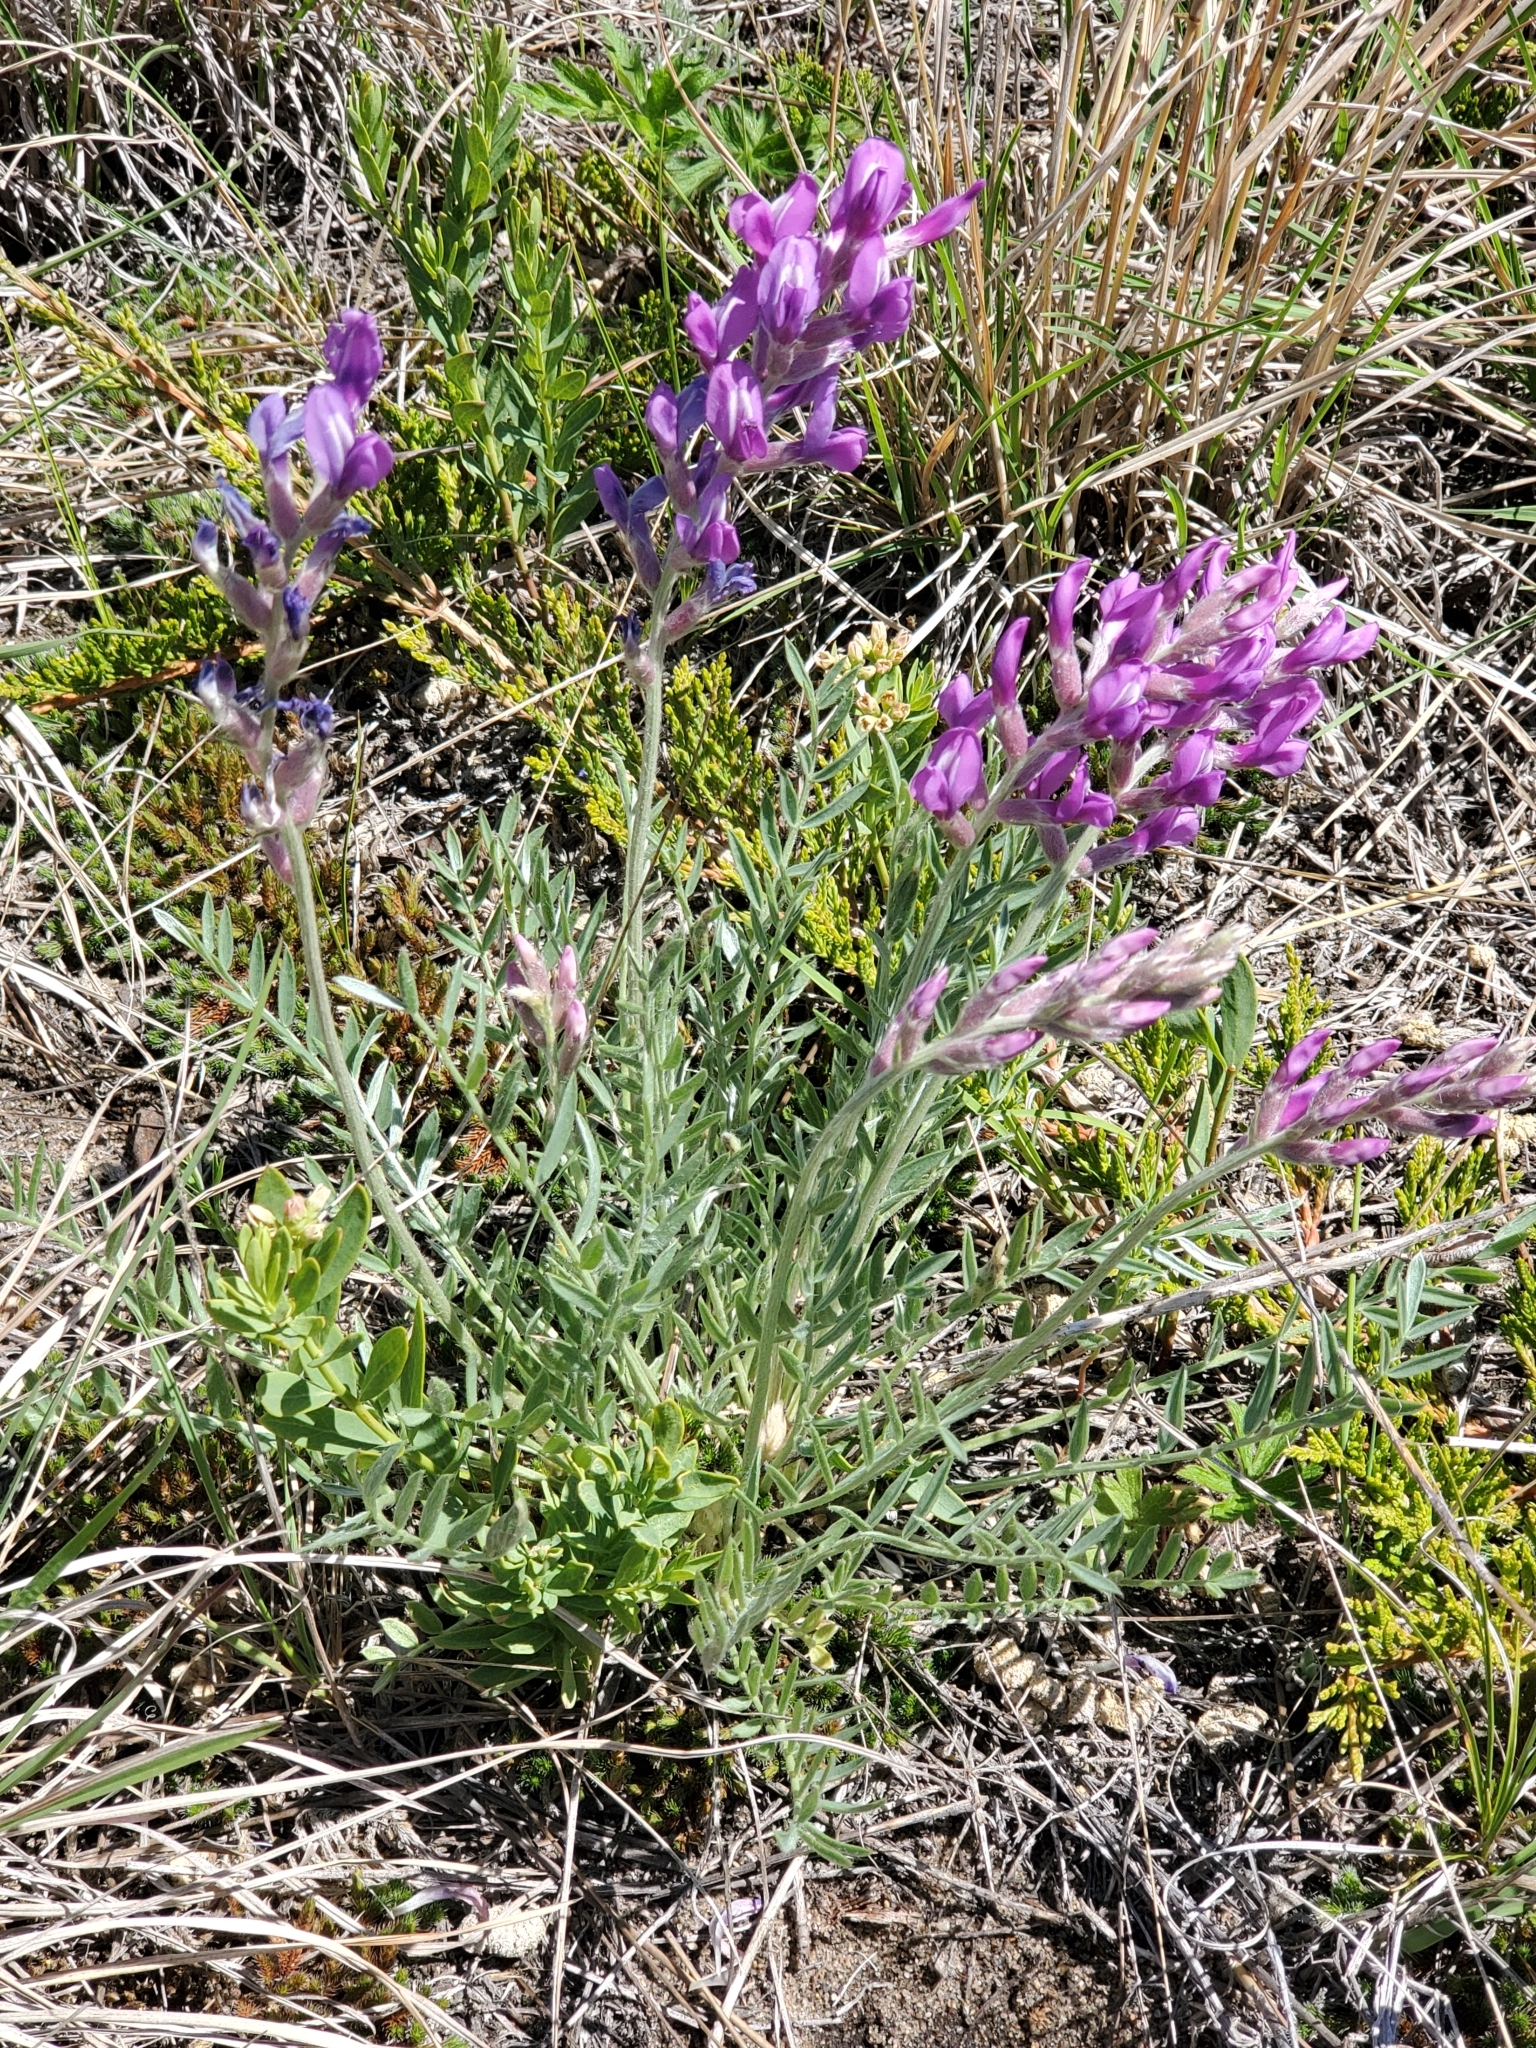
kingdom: Plantae
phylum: Tracheophyta
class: Magnoliopsida
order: Fabales
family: Fabaceae
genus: Oxytropis
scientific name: Oxytropis lambertii
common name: Purple locoweed
